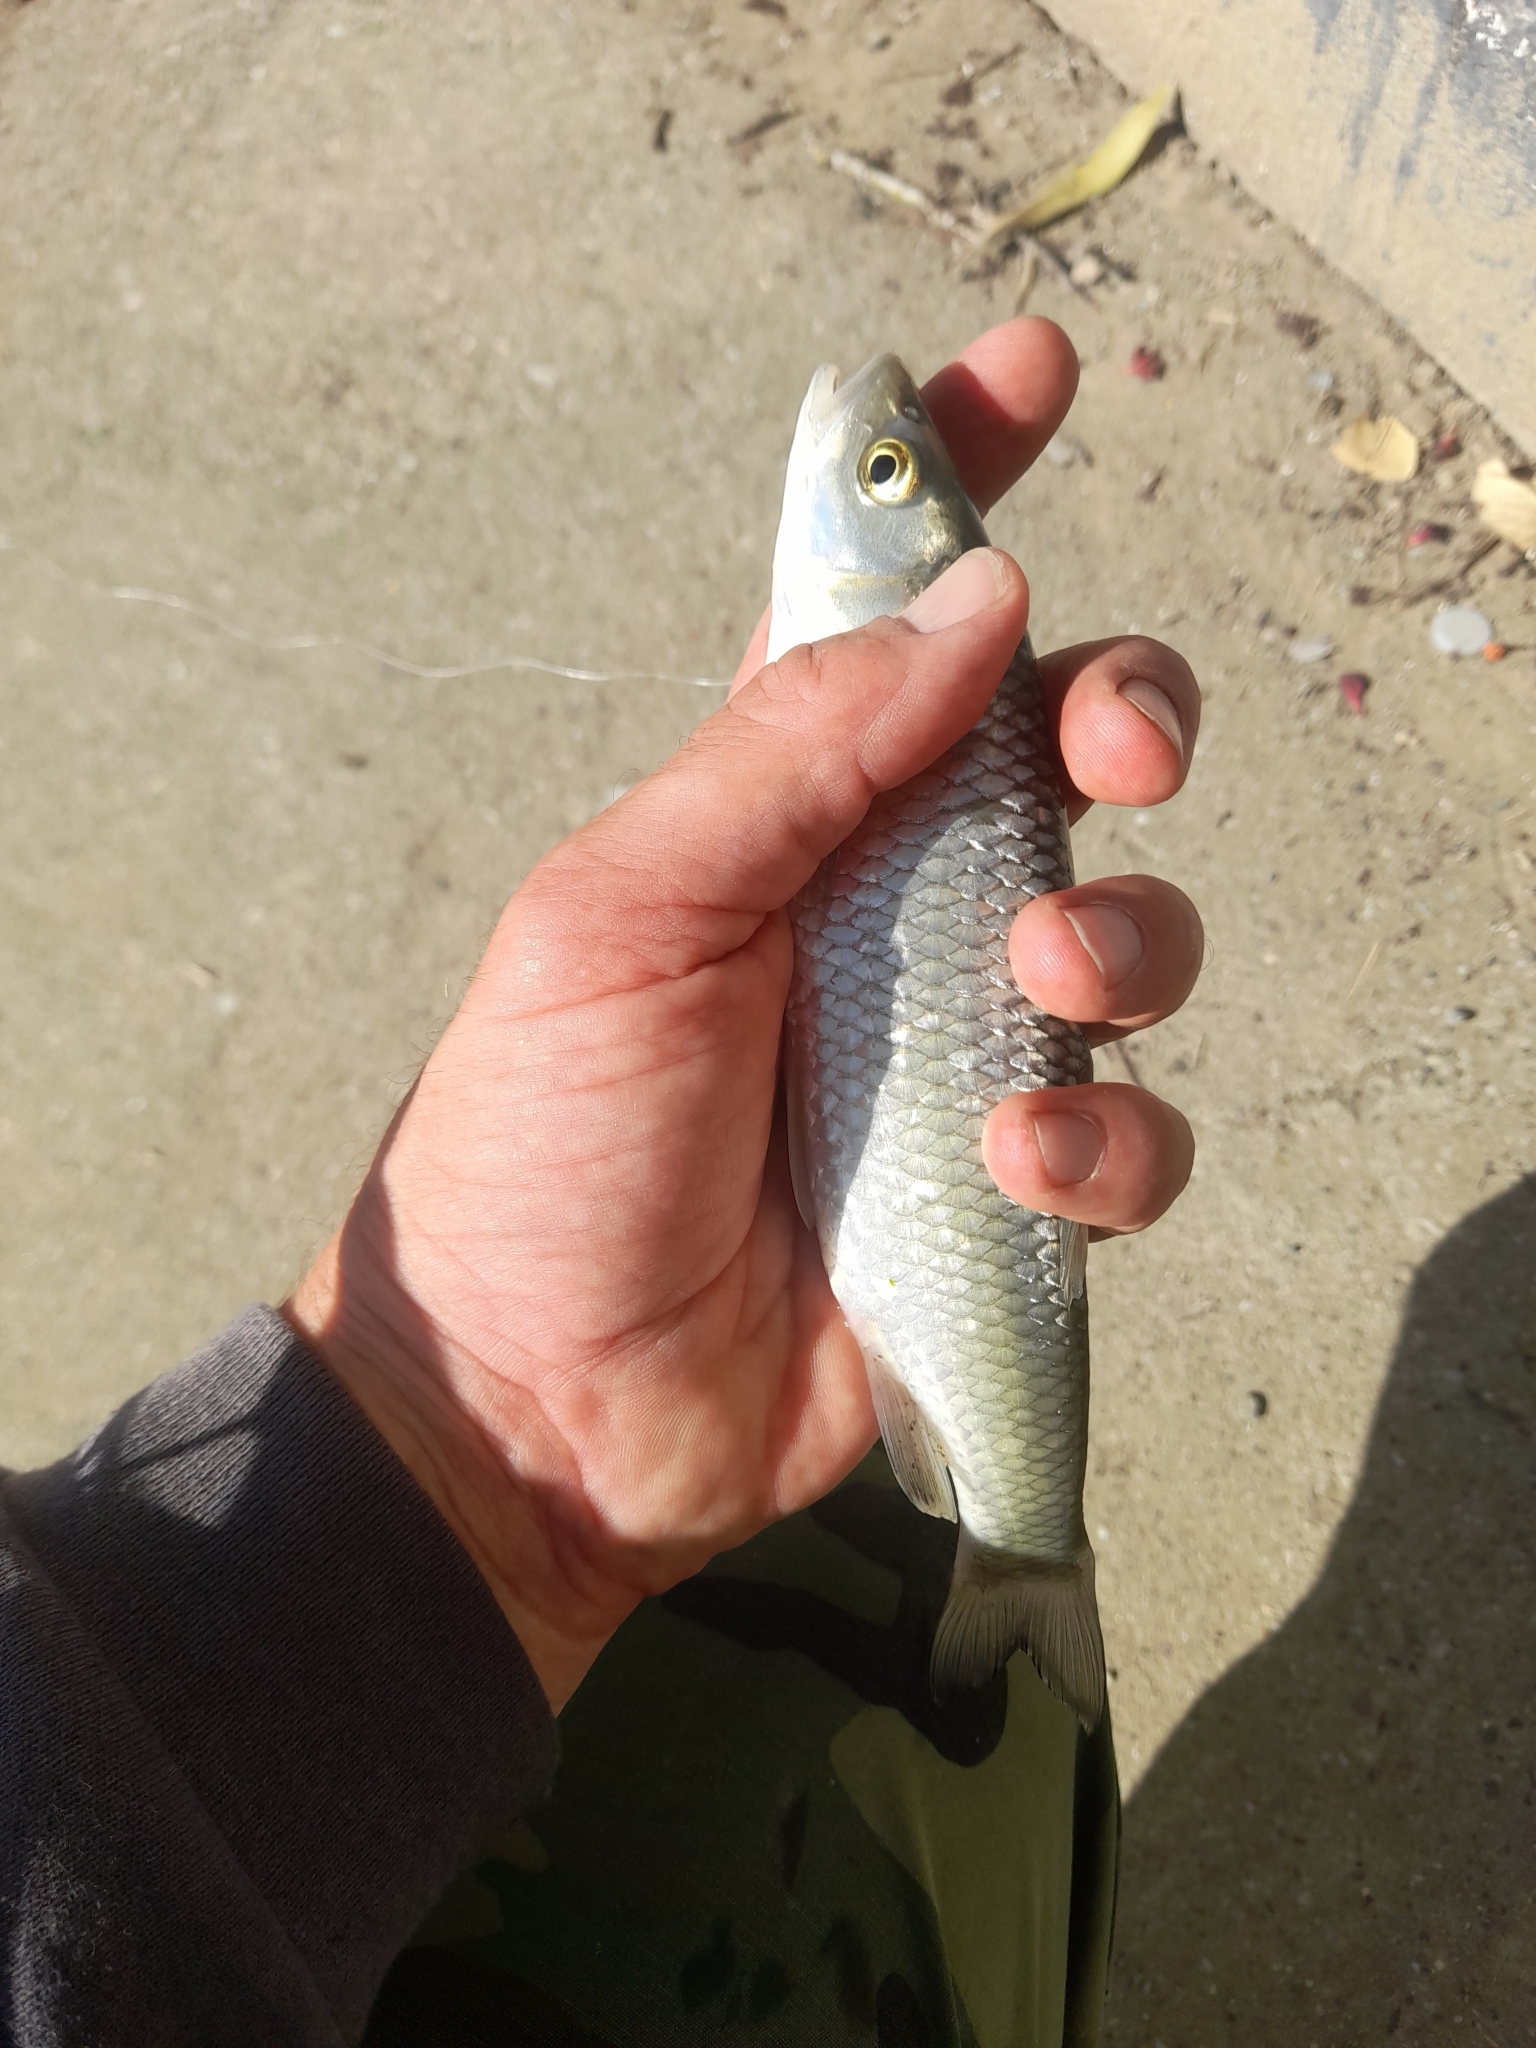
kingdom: Animalia
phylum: Chordata
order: Cypriniformes
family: Cyprinidae
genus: Squalius
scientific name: Squalius squalus
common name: Italian chub
